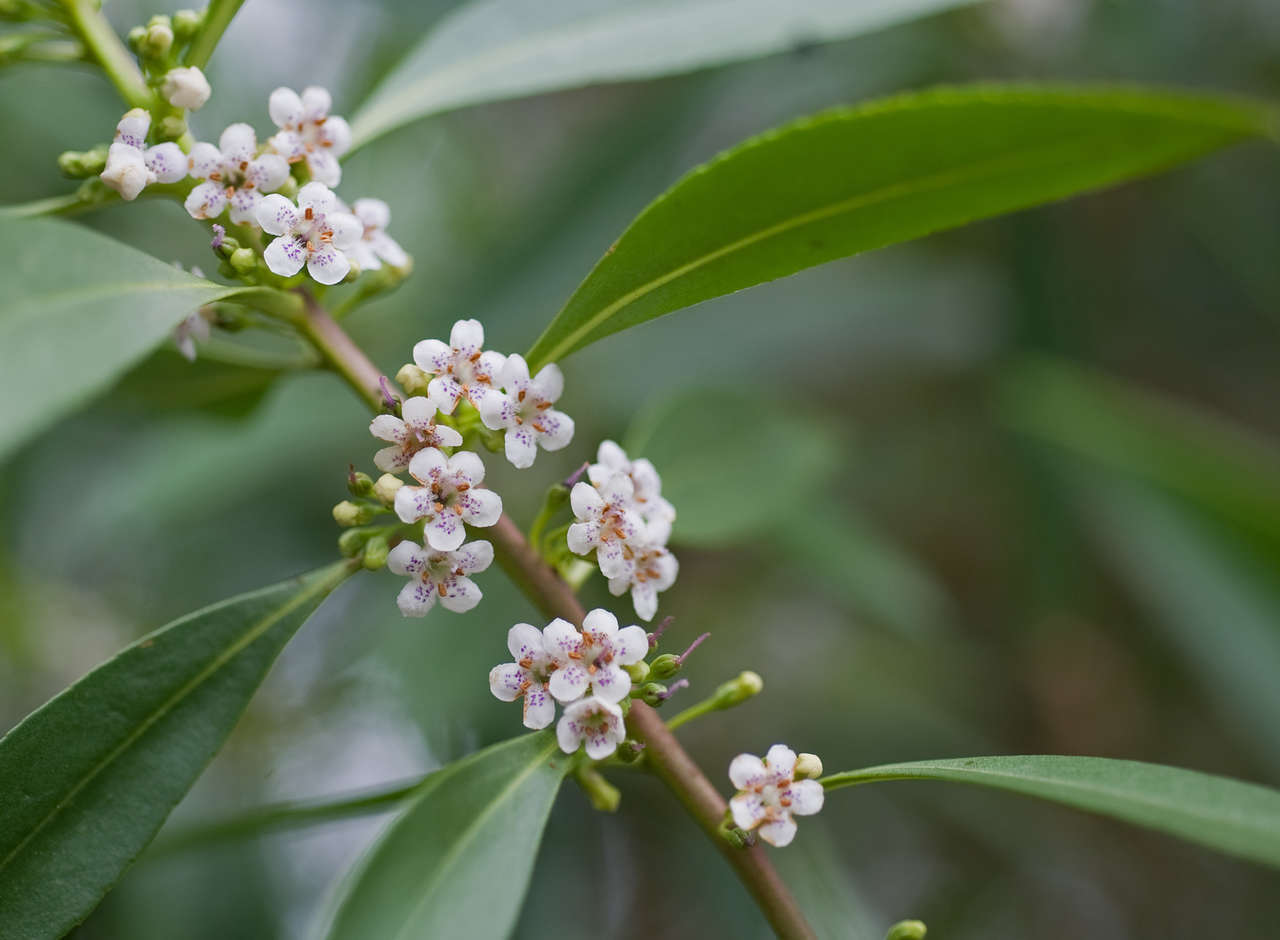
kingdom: Plantae
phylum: Tracheophyta
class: Magnoliopsida
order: Lamiales
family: Scrophulariaceae
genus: Myoporum
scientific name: Myoporum insulare
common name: Common boobialla
